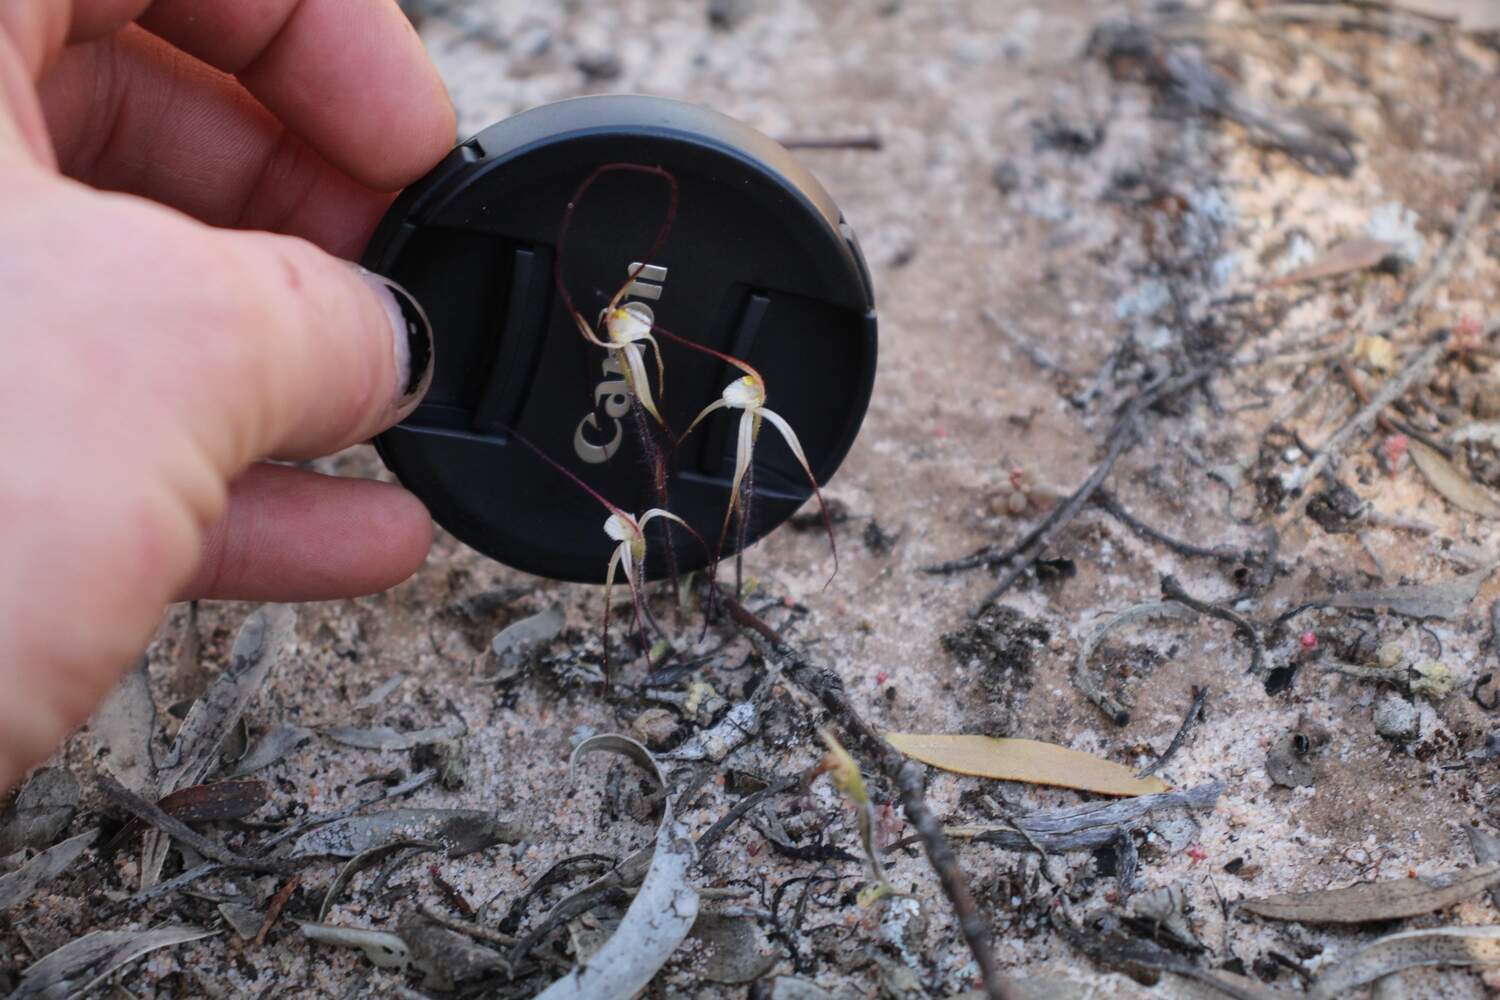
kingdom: Plantae
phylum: Tracheophyta
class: Liliopsida
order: Asparagales
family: Orchidaceae
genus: Caladenia
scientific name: Caladenia microchila
